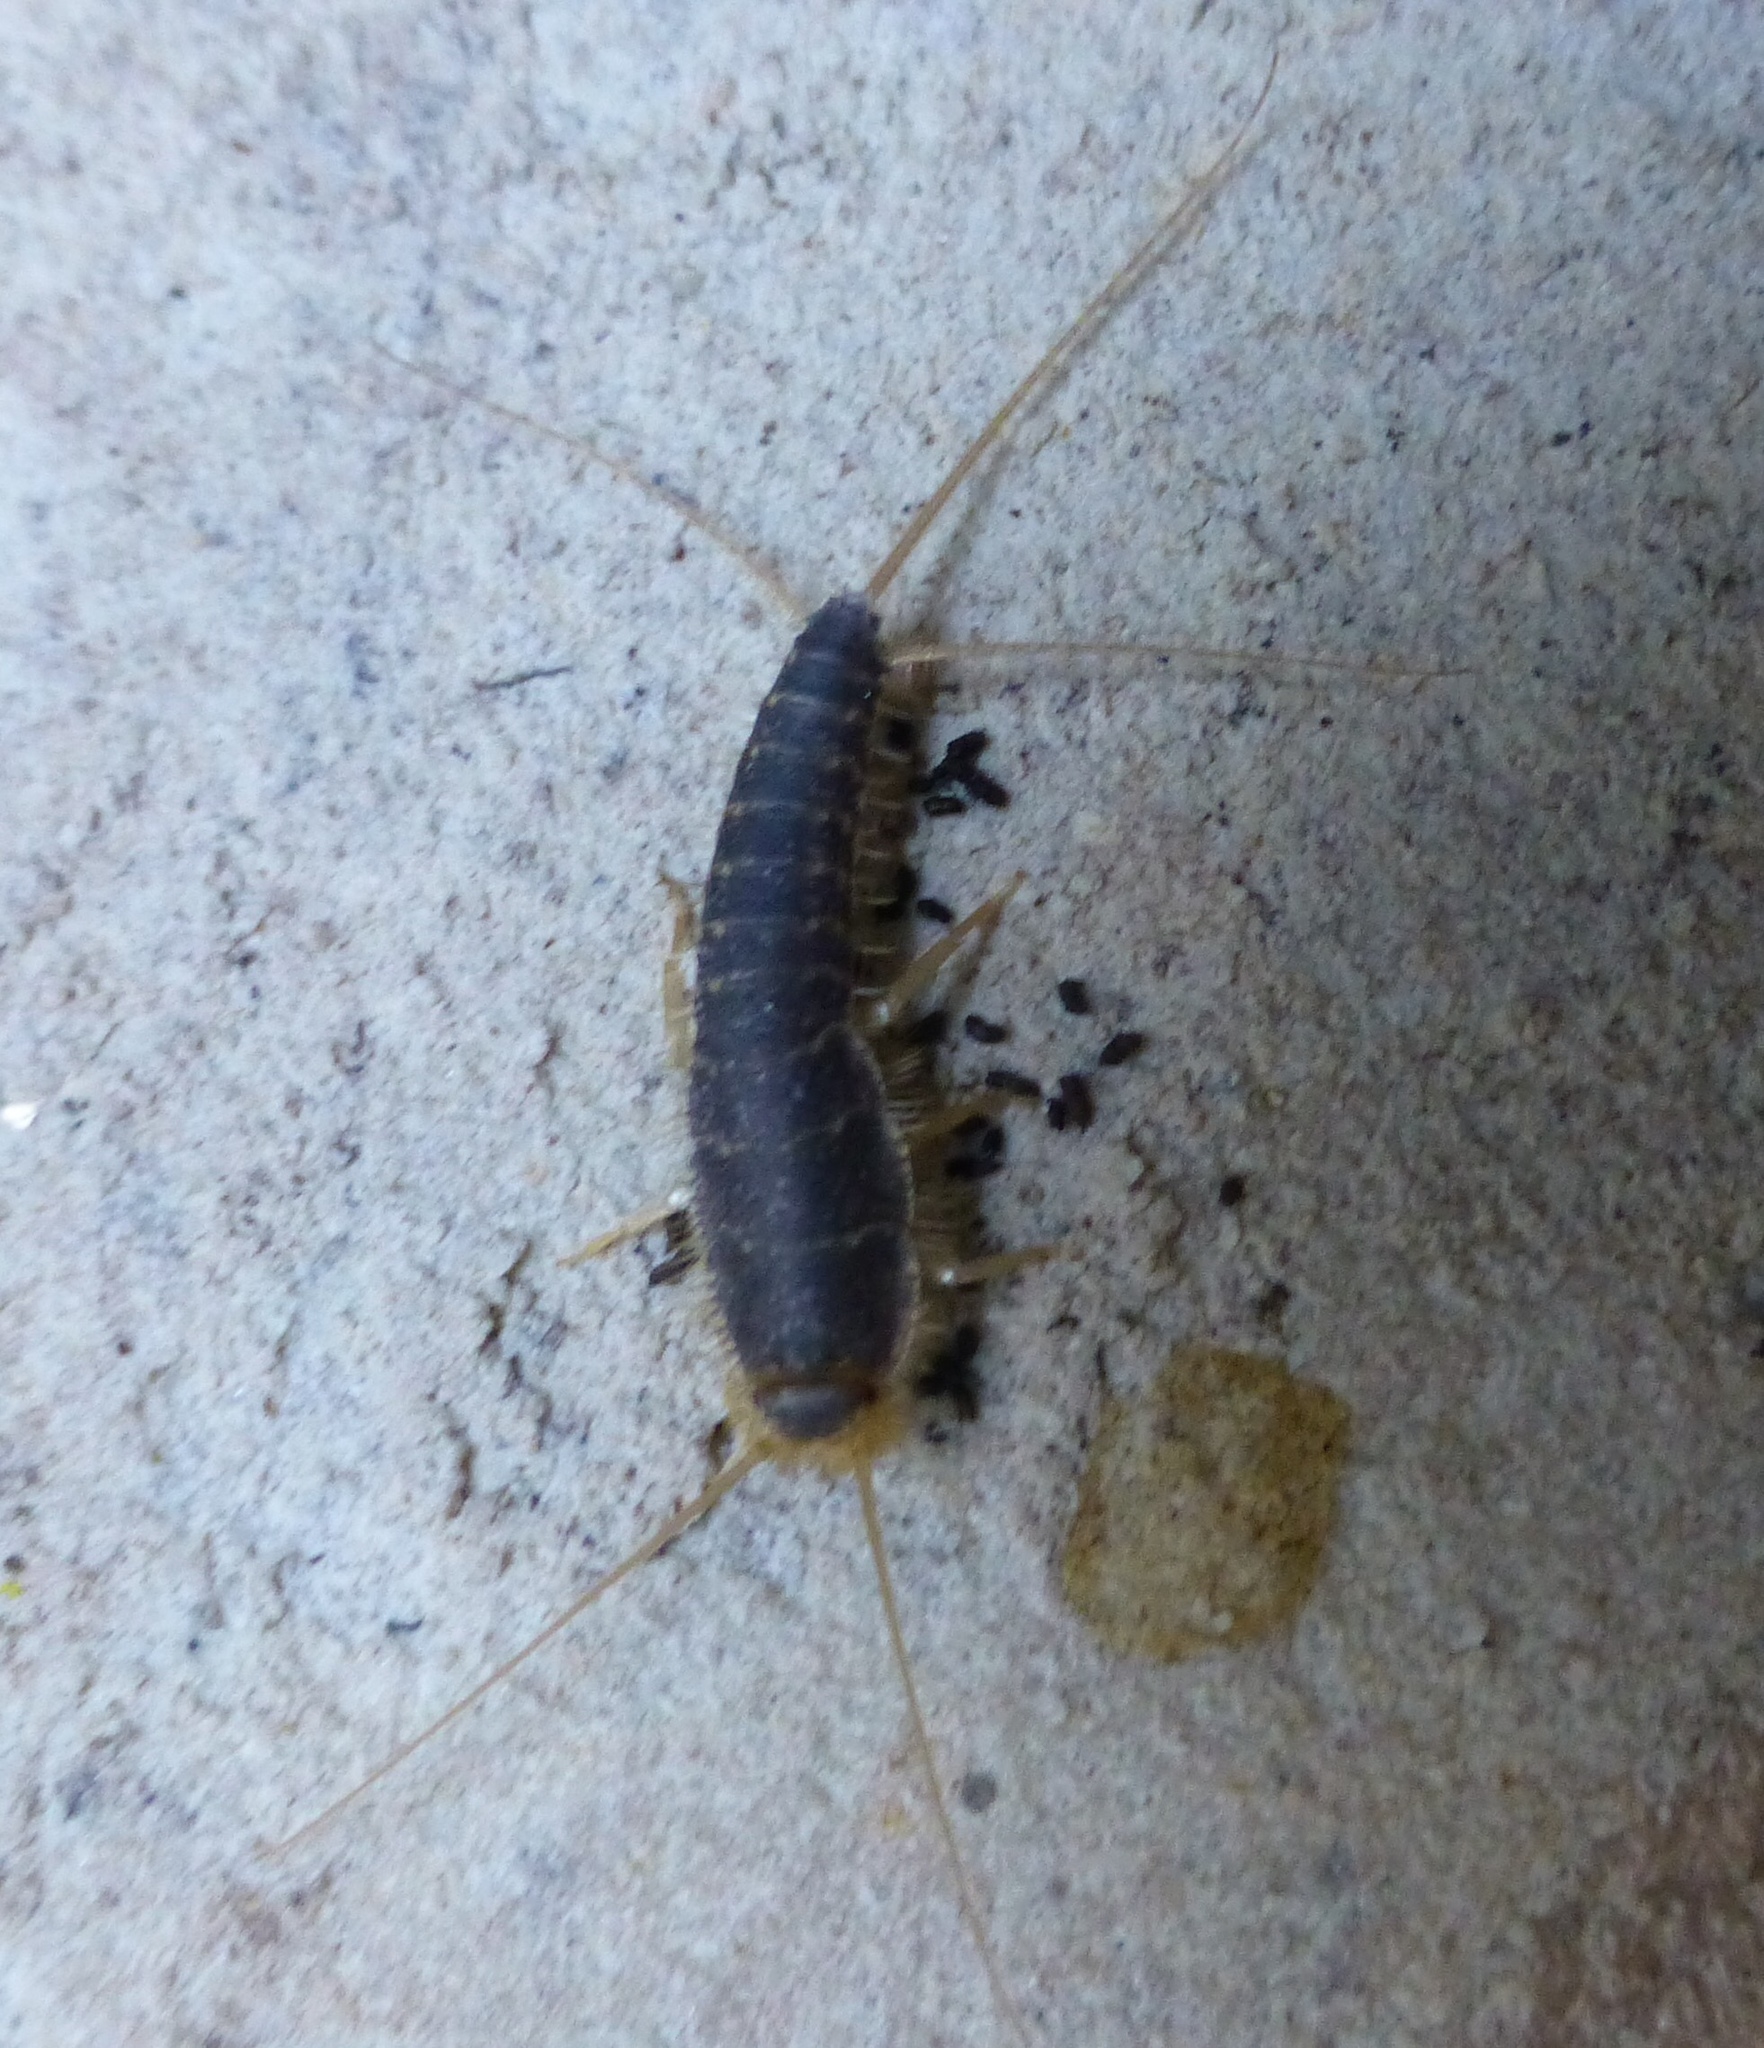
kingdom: Animalia
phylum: Arthropoda
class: Insecta
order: Zygentoma
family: Lepismatidae
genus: Ctenolepisma
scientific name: Ctenolepisma longicaudatum
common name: Silverfish
